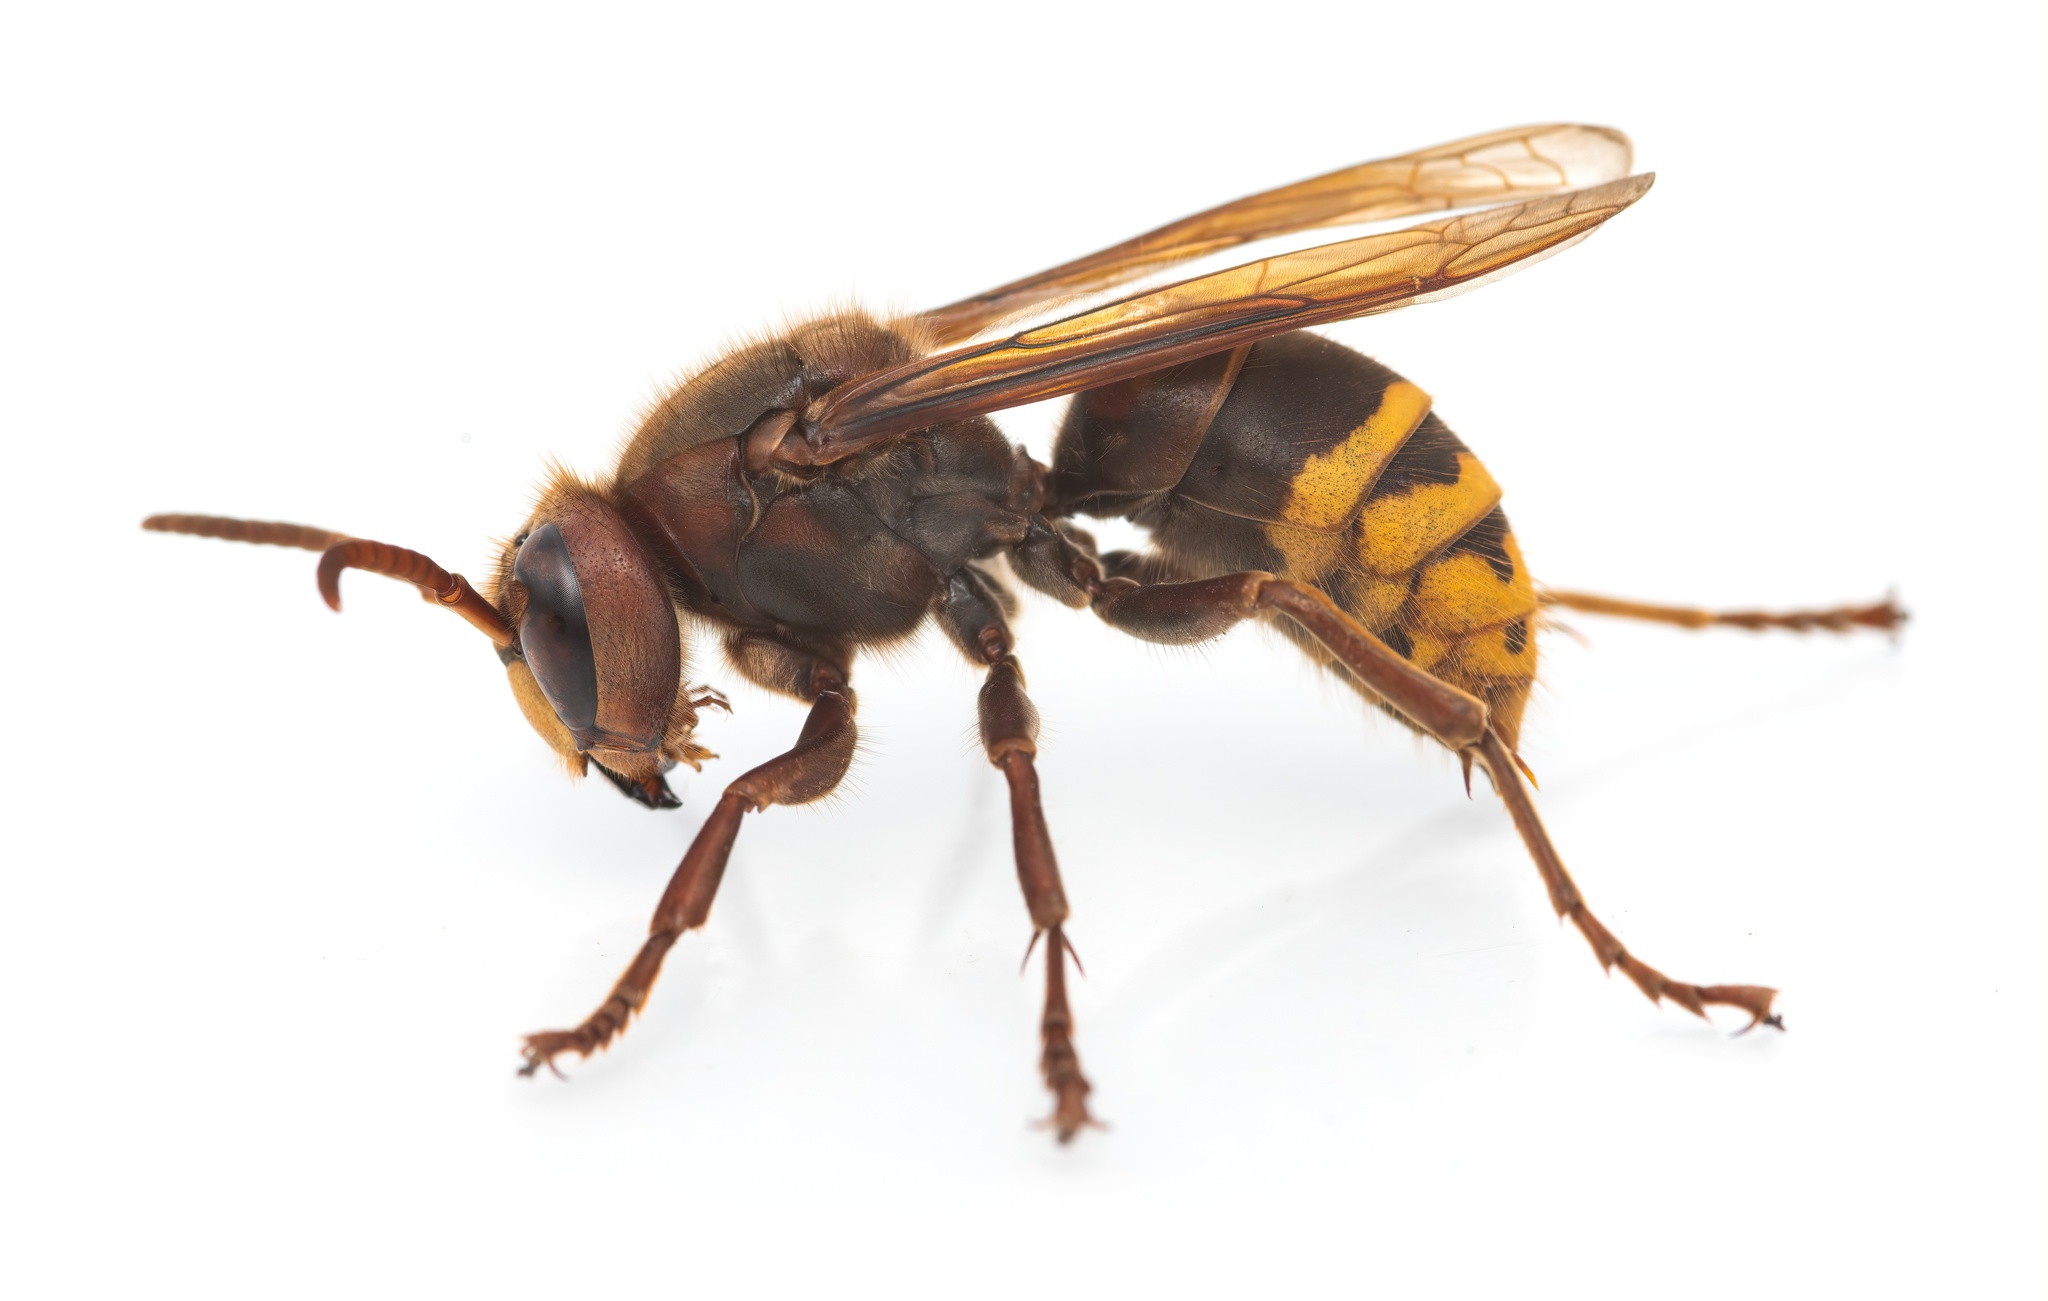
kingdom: Animalia
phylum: Arthropoda
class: Insecta
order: Hymenoptera
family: Vespidae
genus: Vespa
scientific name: Vespa crabro
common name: Hornet
